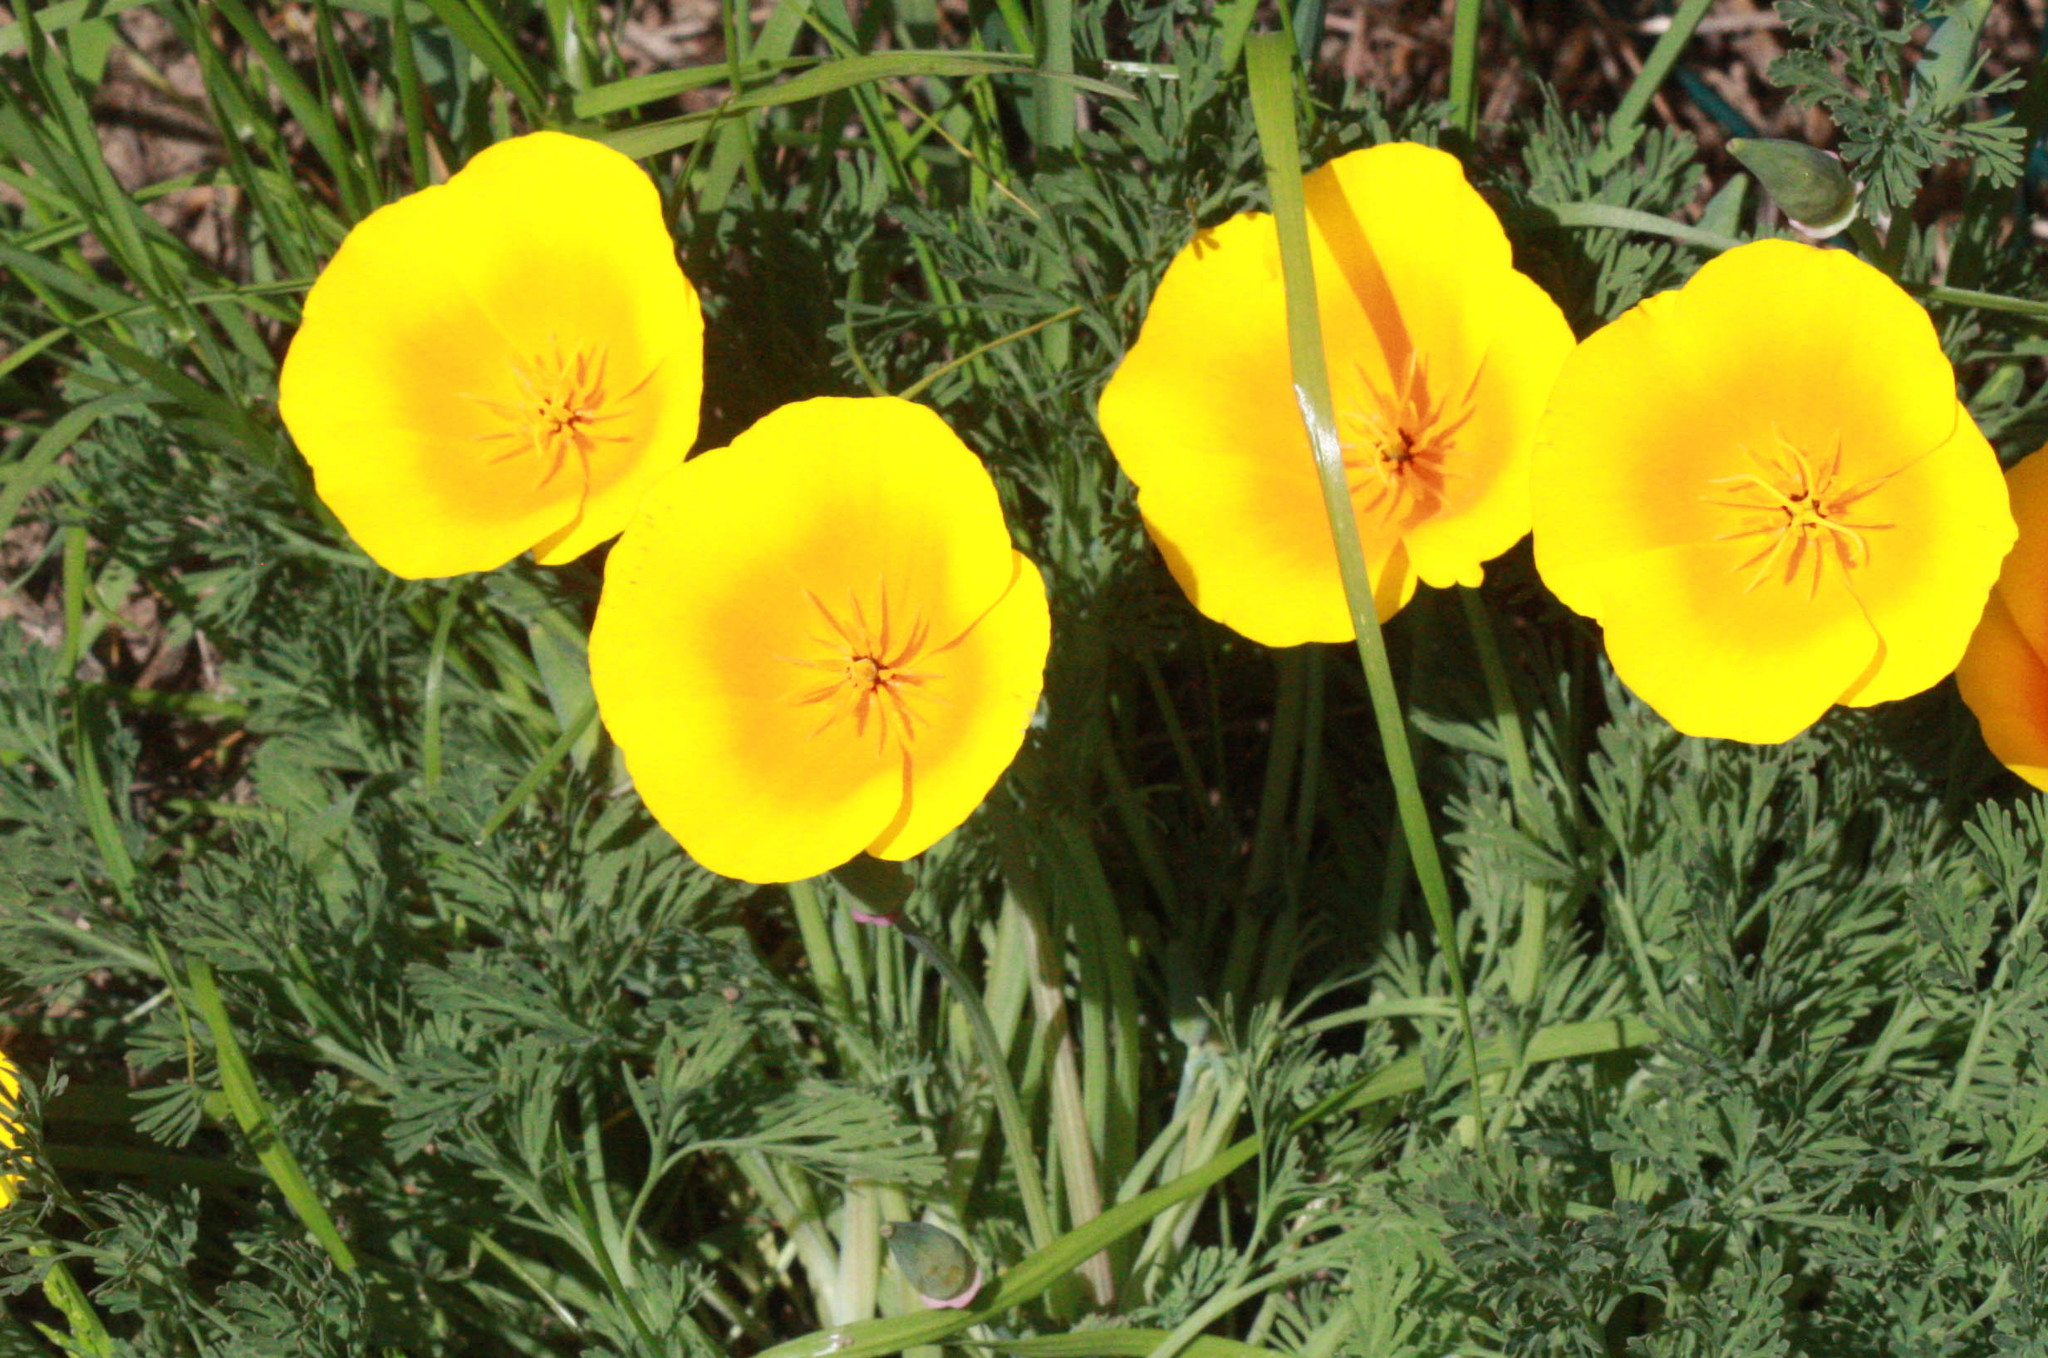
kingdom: Plantae
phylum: Tracheophyta
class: Magnoliopsida
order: Ranunculales
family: Papaveraceae
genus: Eschscholzia
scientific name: Eschscholzia californica
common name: California poppy
